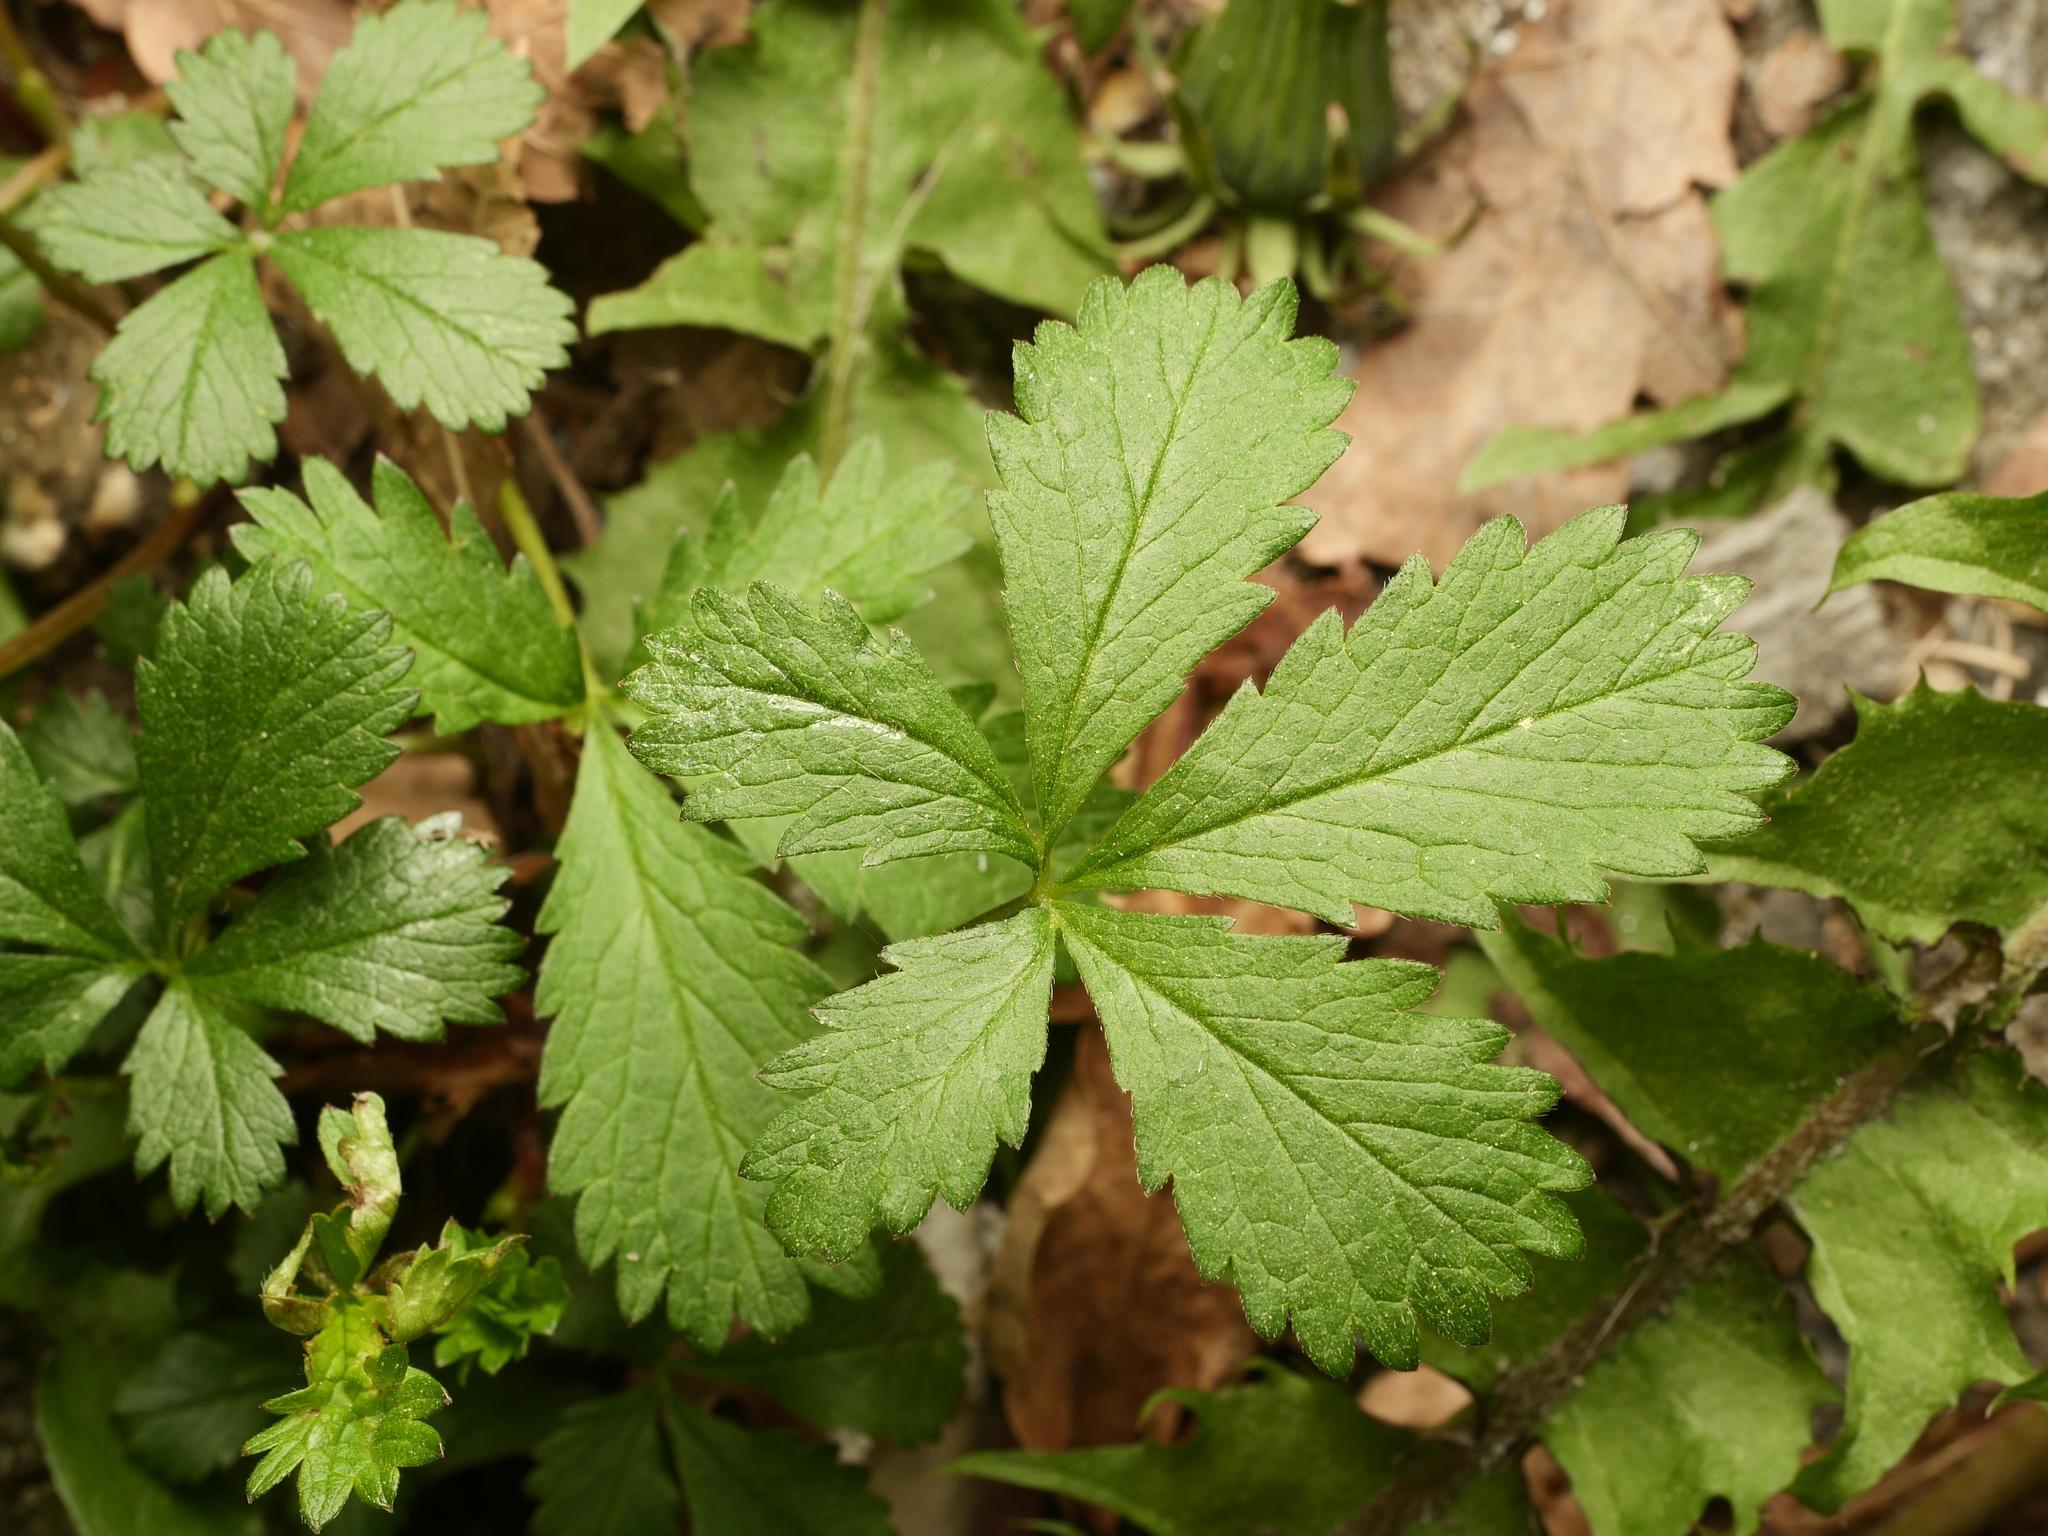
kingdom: Plantae
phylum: Tracheophyta
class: Magnoliopsida
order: Rosales
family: Rosaceae
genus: Potentilla
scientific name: Potentilla reptans
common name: Creeping cinquefoil
